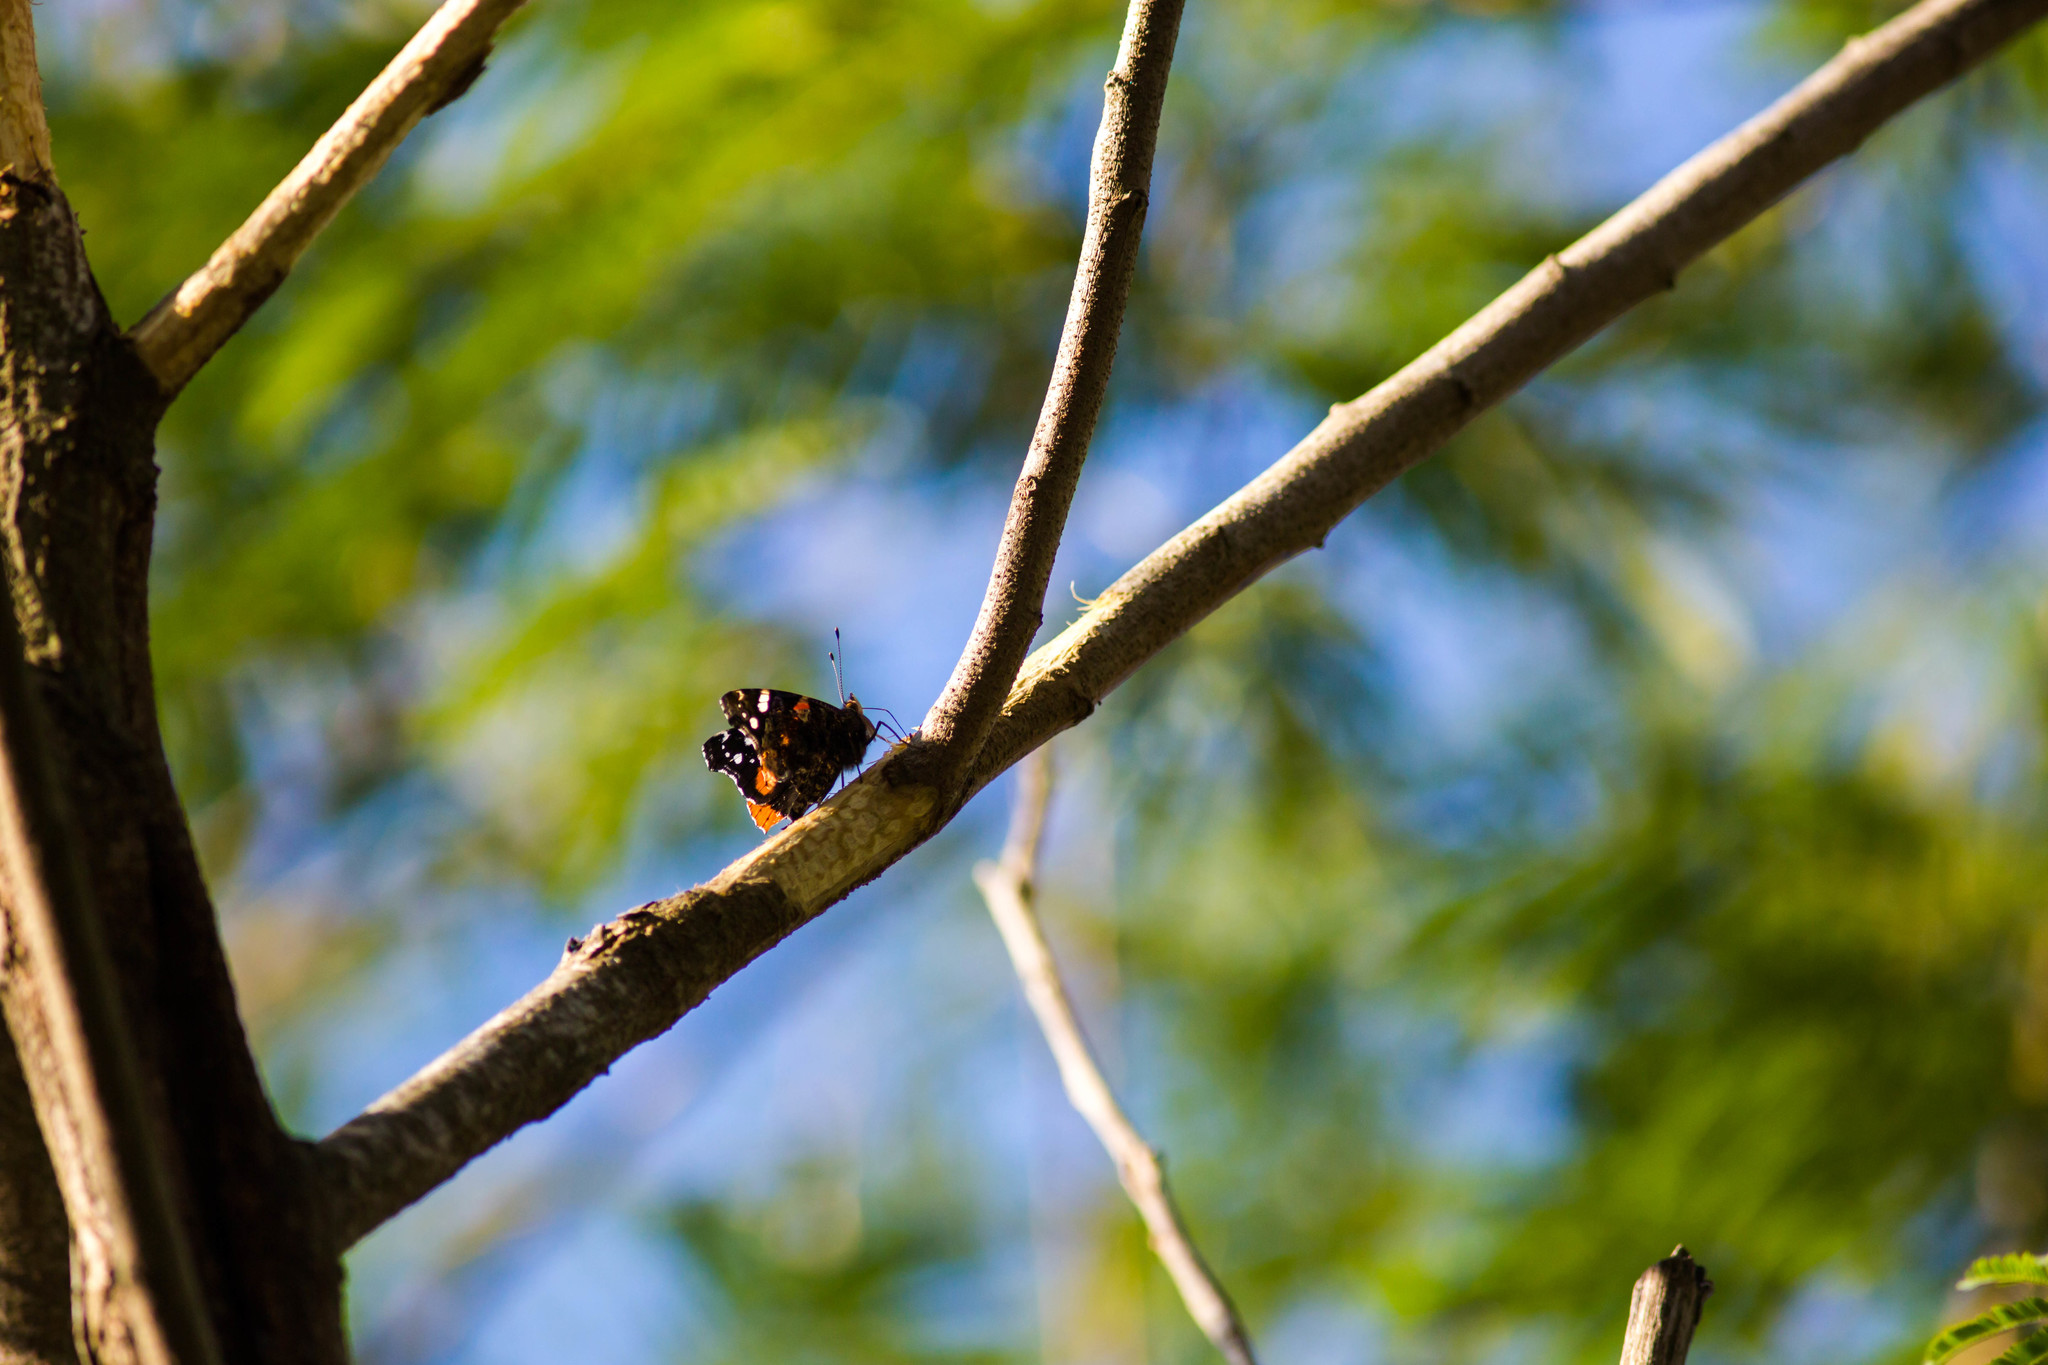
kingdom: Animalia
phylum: Arthropoda
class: Insecta
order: Lepidoptera
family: Nymphalidae
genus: Vanessa
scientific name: Vanessa atalanta
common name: Red admiral
